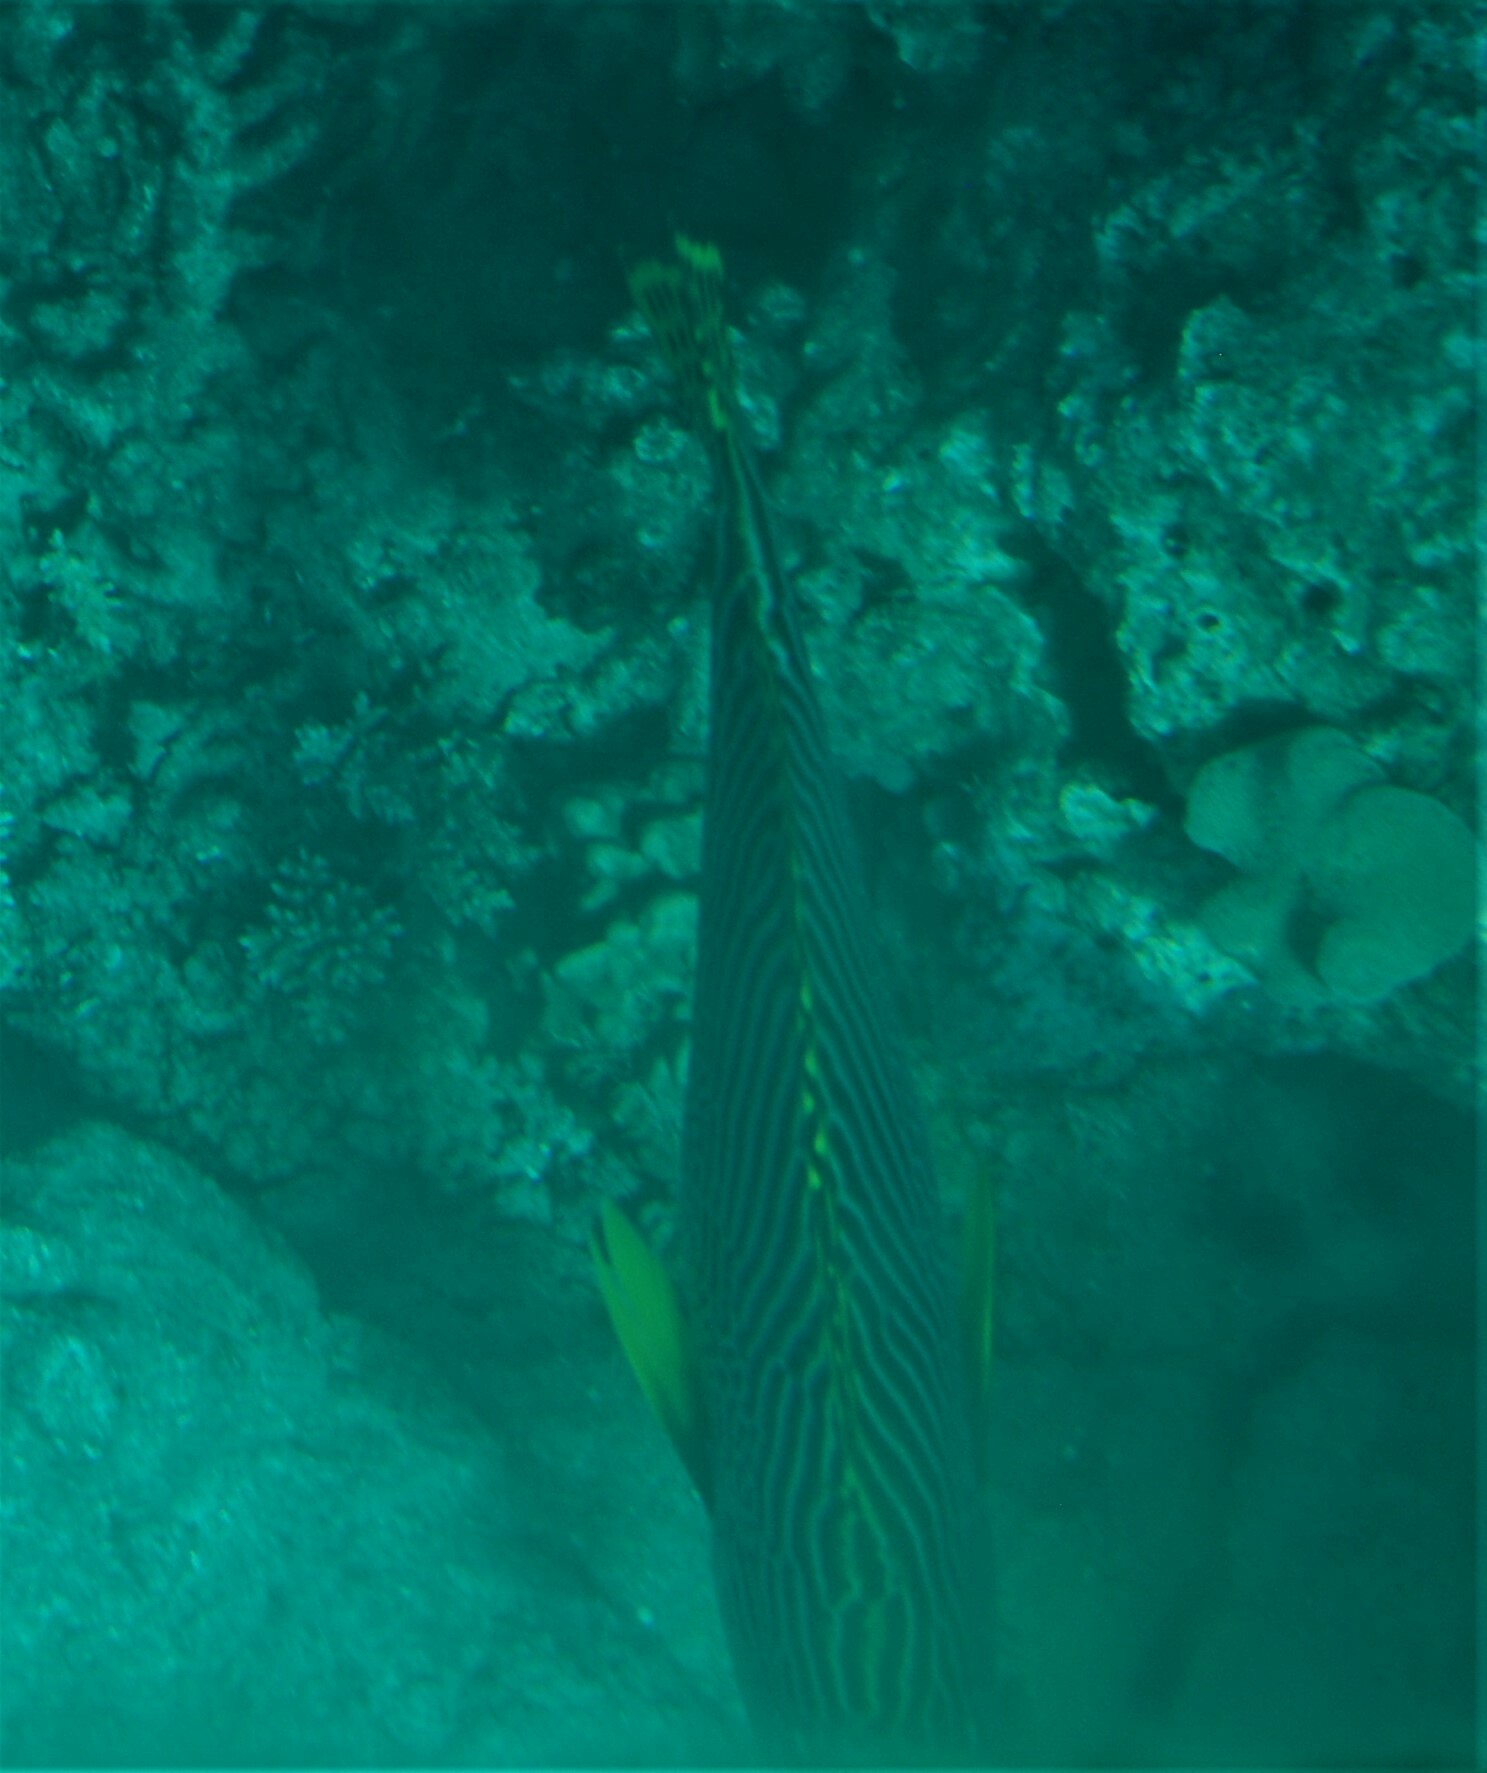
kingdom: Animalia
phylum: Chordata
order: Perciformes
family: Haemulidae
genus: Plectorhinchus
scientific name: Plectorhinchus lineatus
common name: Goldman's sweetlips
